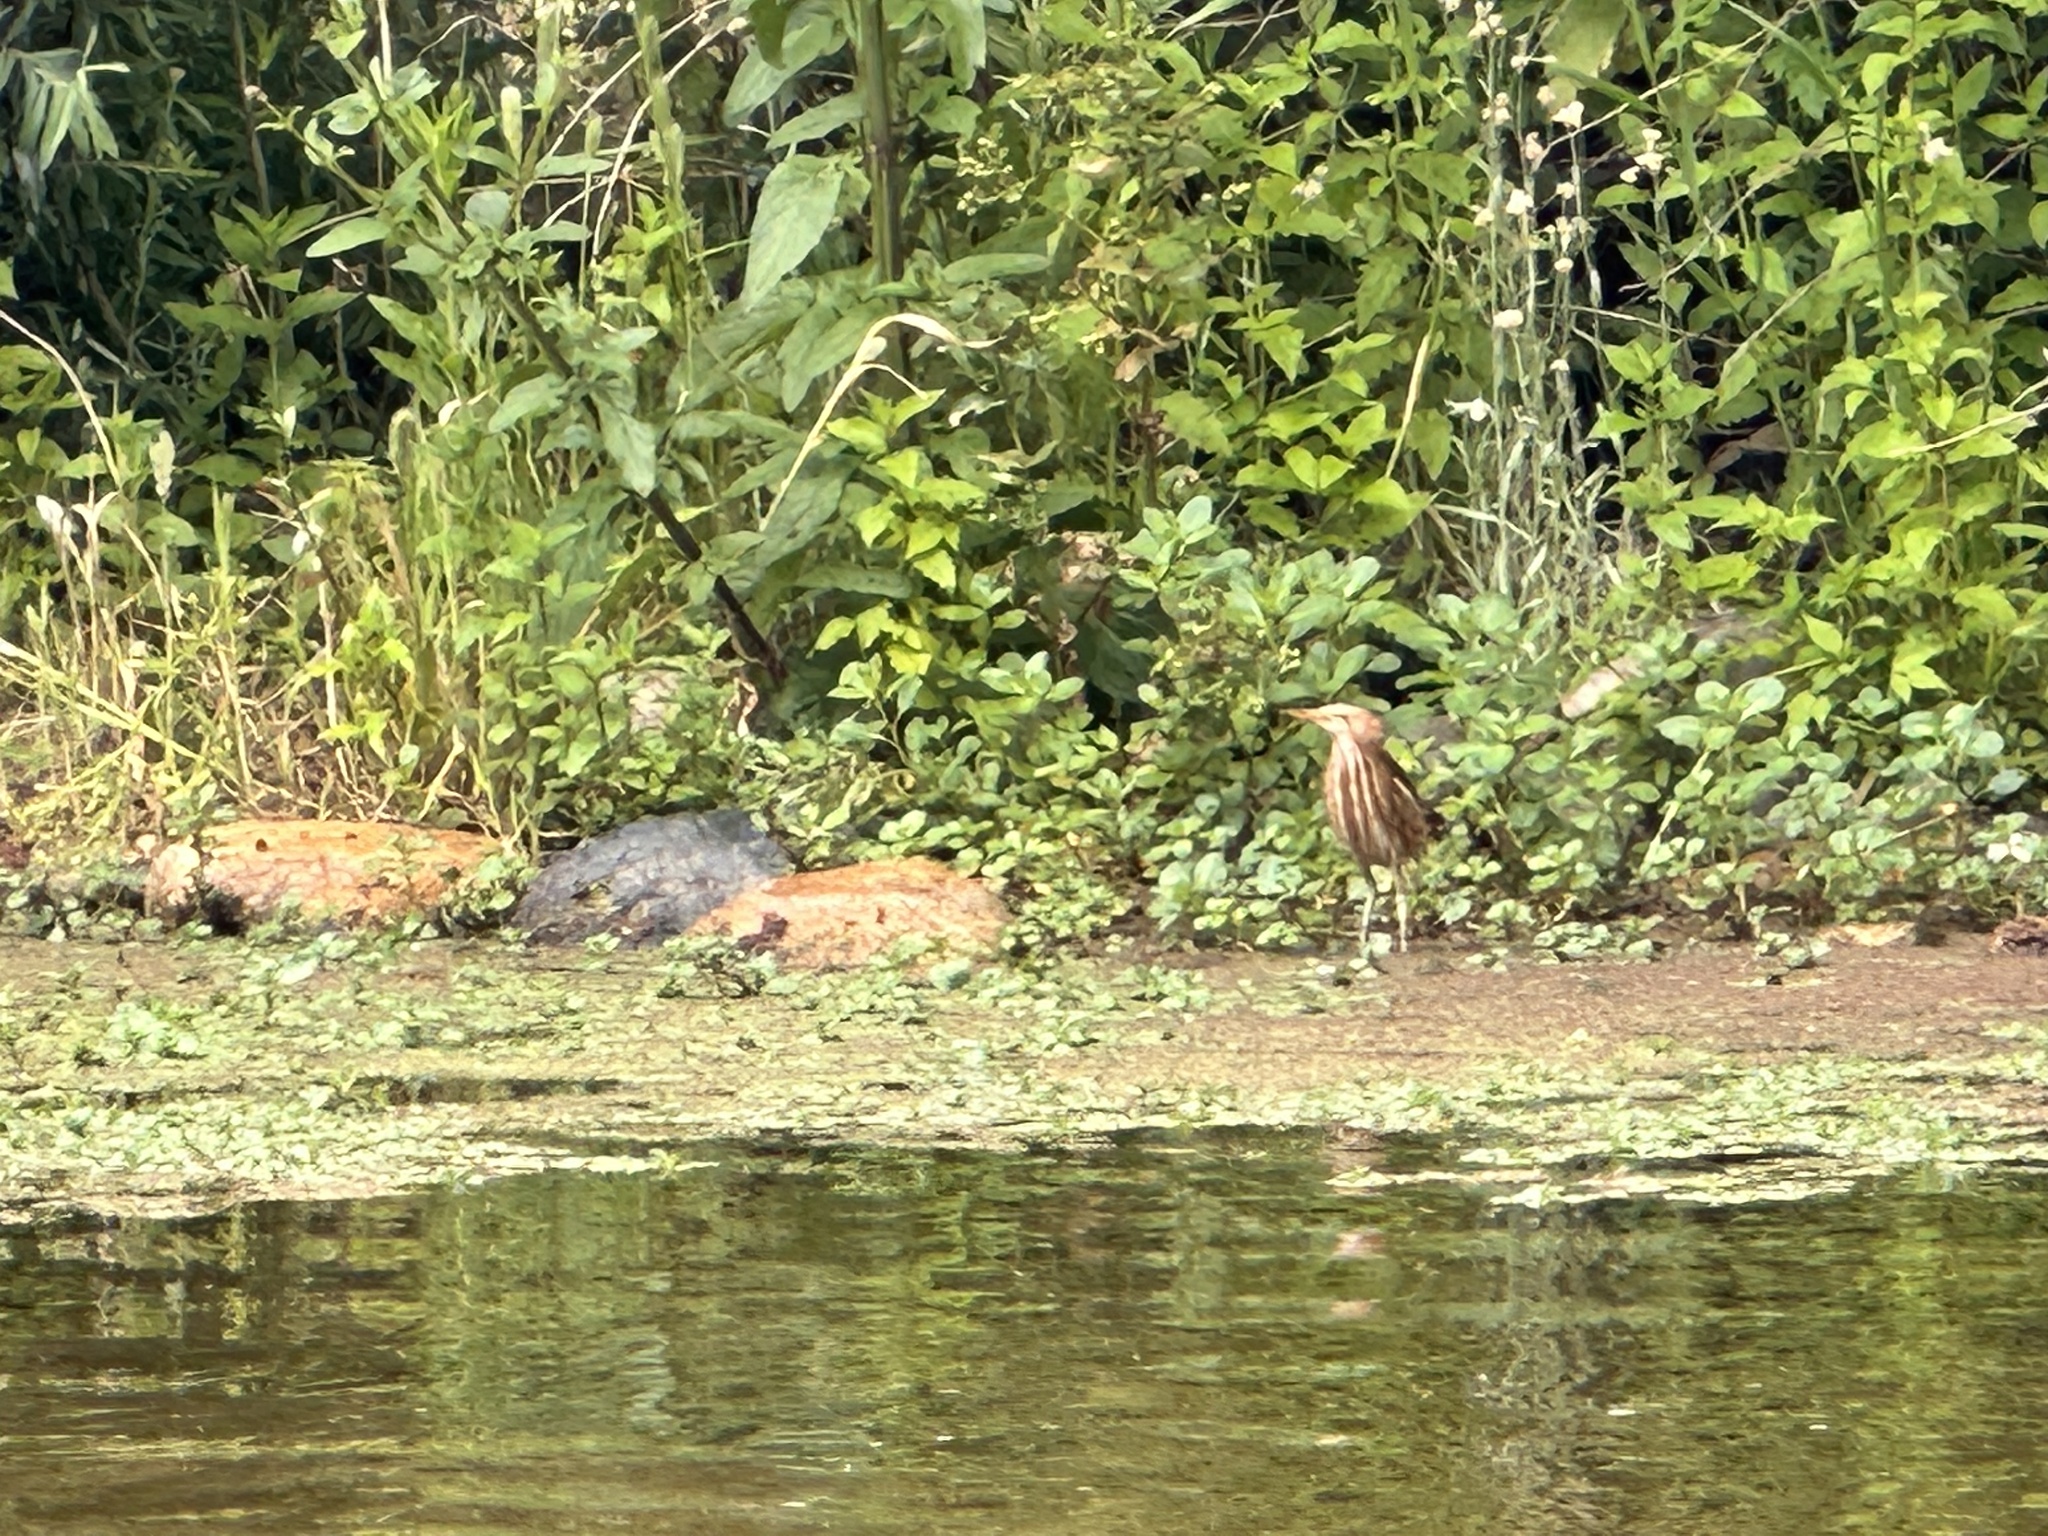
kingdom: Animalia
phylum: Chordata
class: Aves
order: Pelecaniformes
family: Ardeidae
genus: Ixobrychus
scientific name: Ixobrychus minutus
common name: Little bittern
